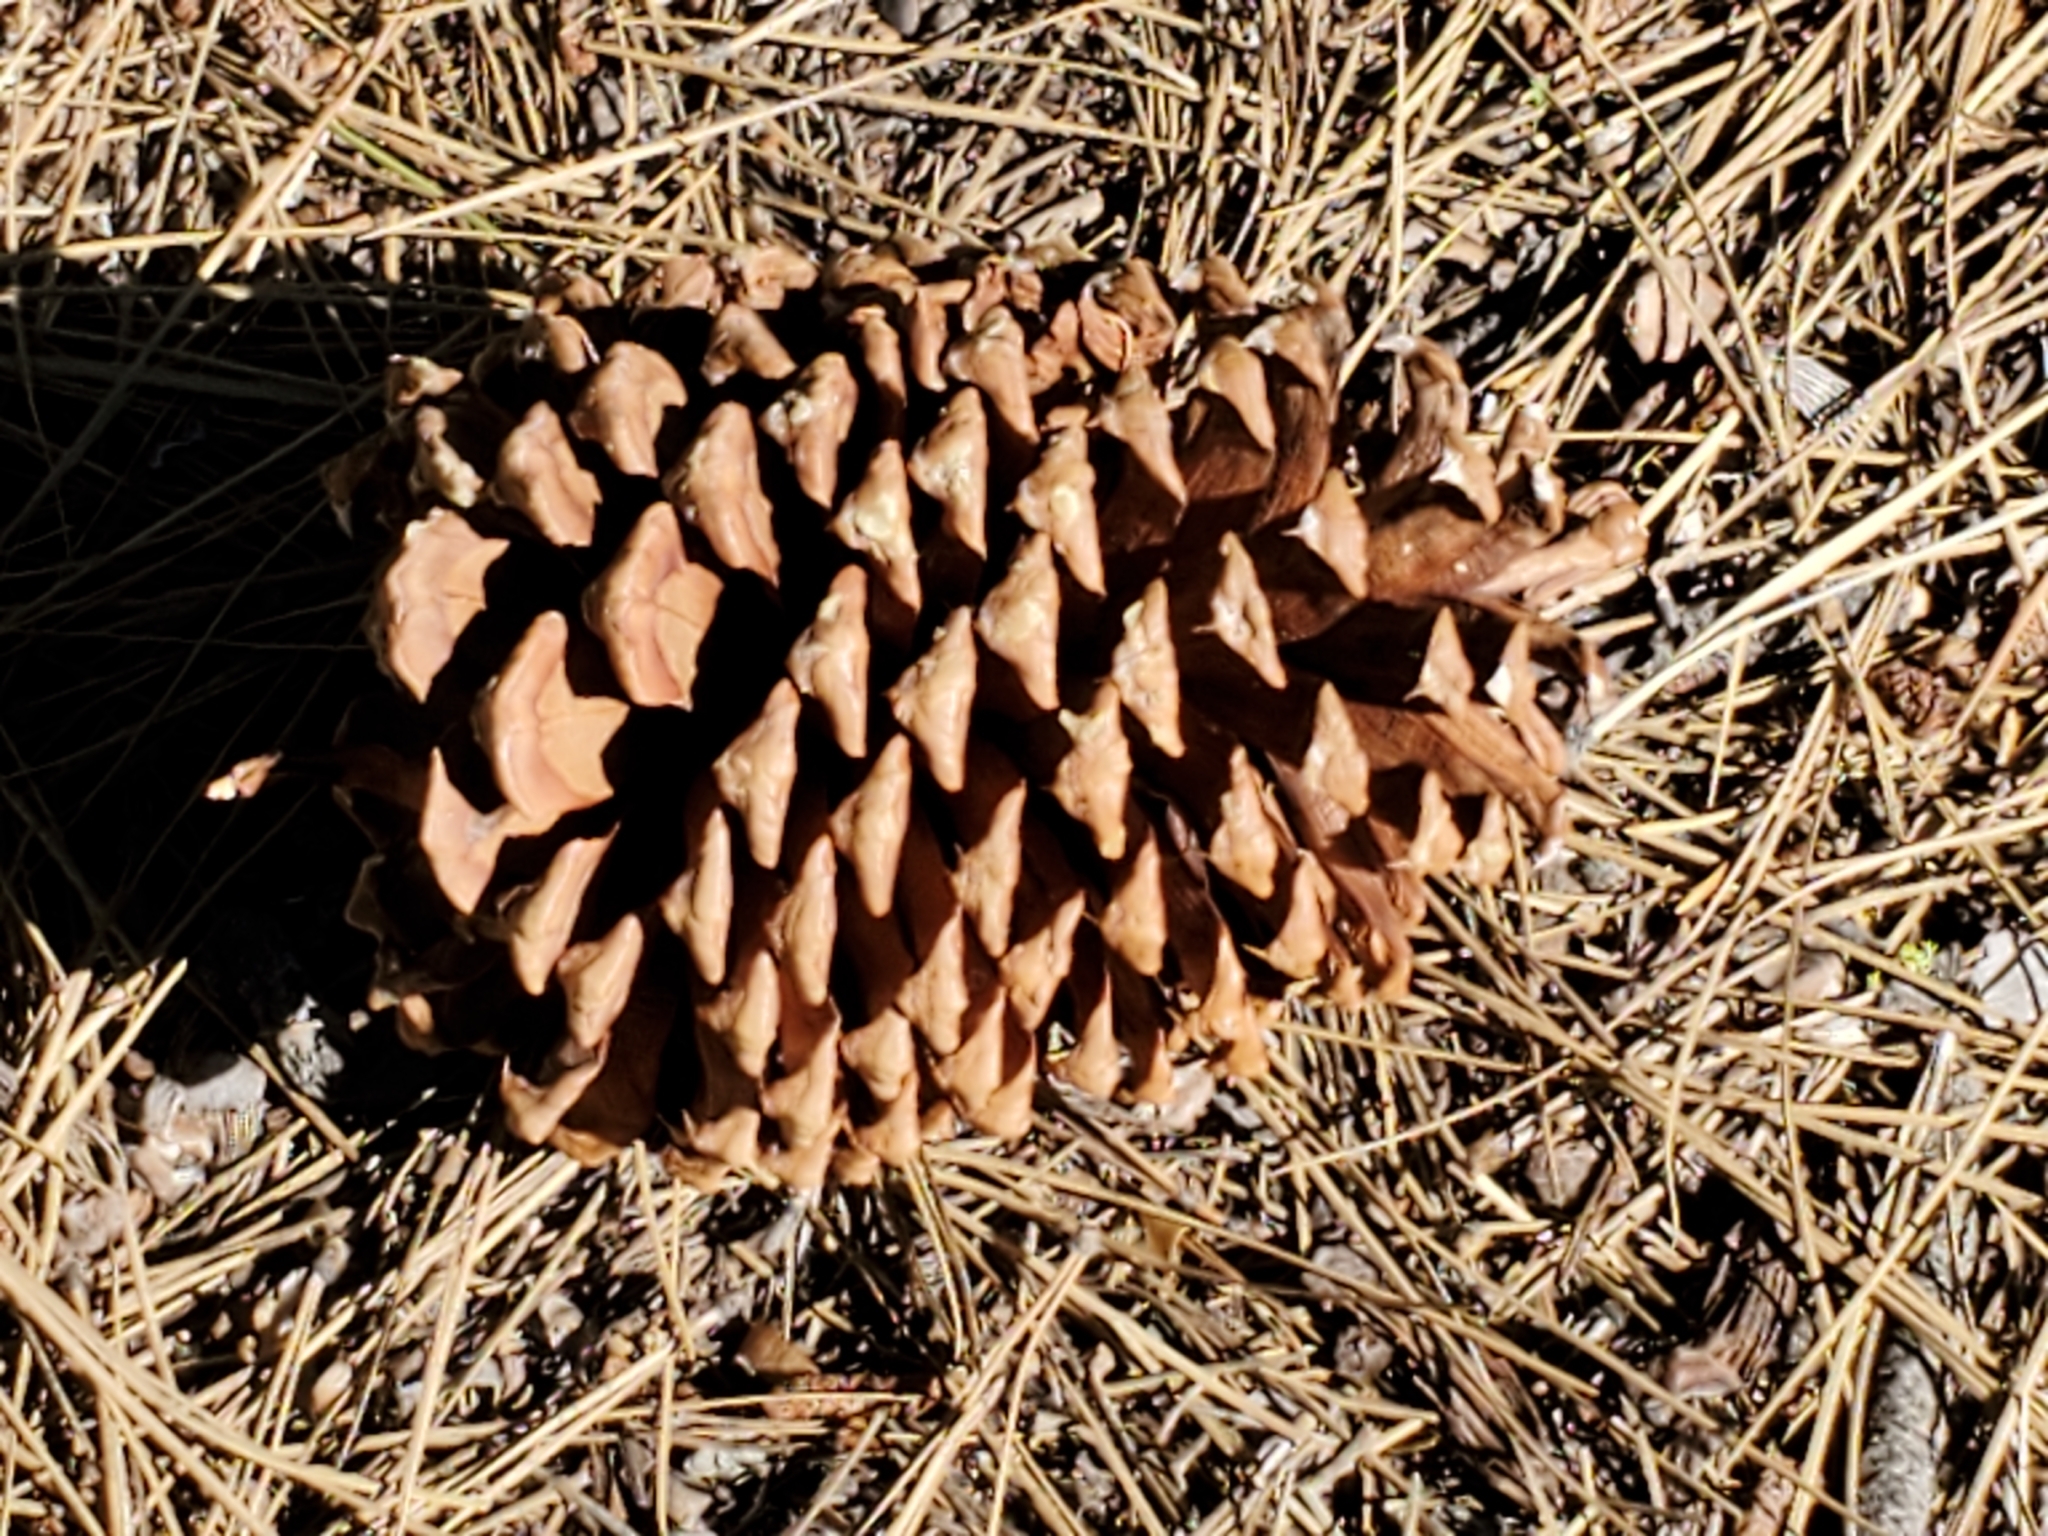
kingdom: Plantae
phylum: Tracheophyta
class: Pinopsida
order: Pinales
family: Pinaceae
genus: Pinus
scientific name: Pinus jeffreyi
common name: Jeffrey pine
